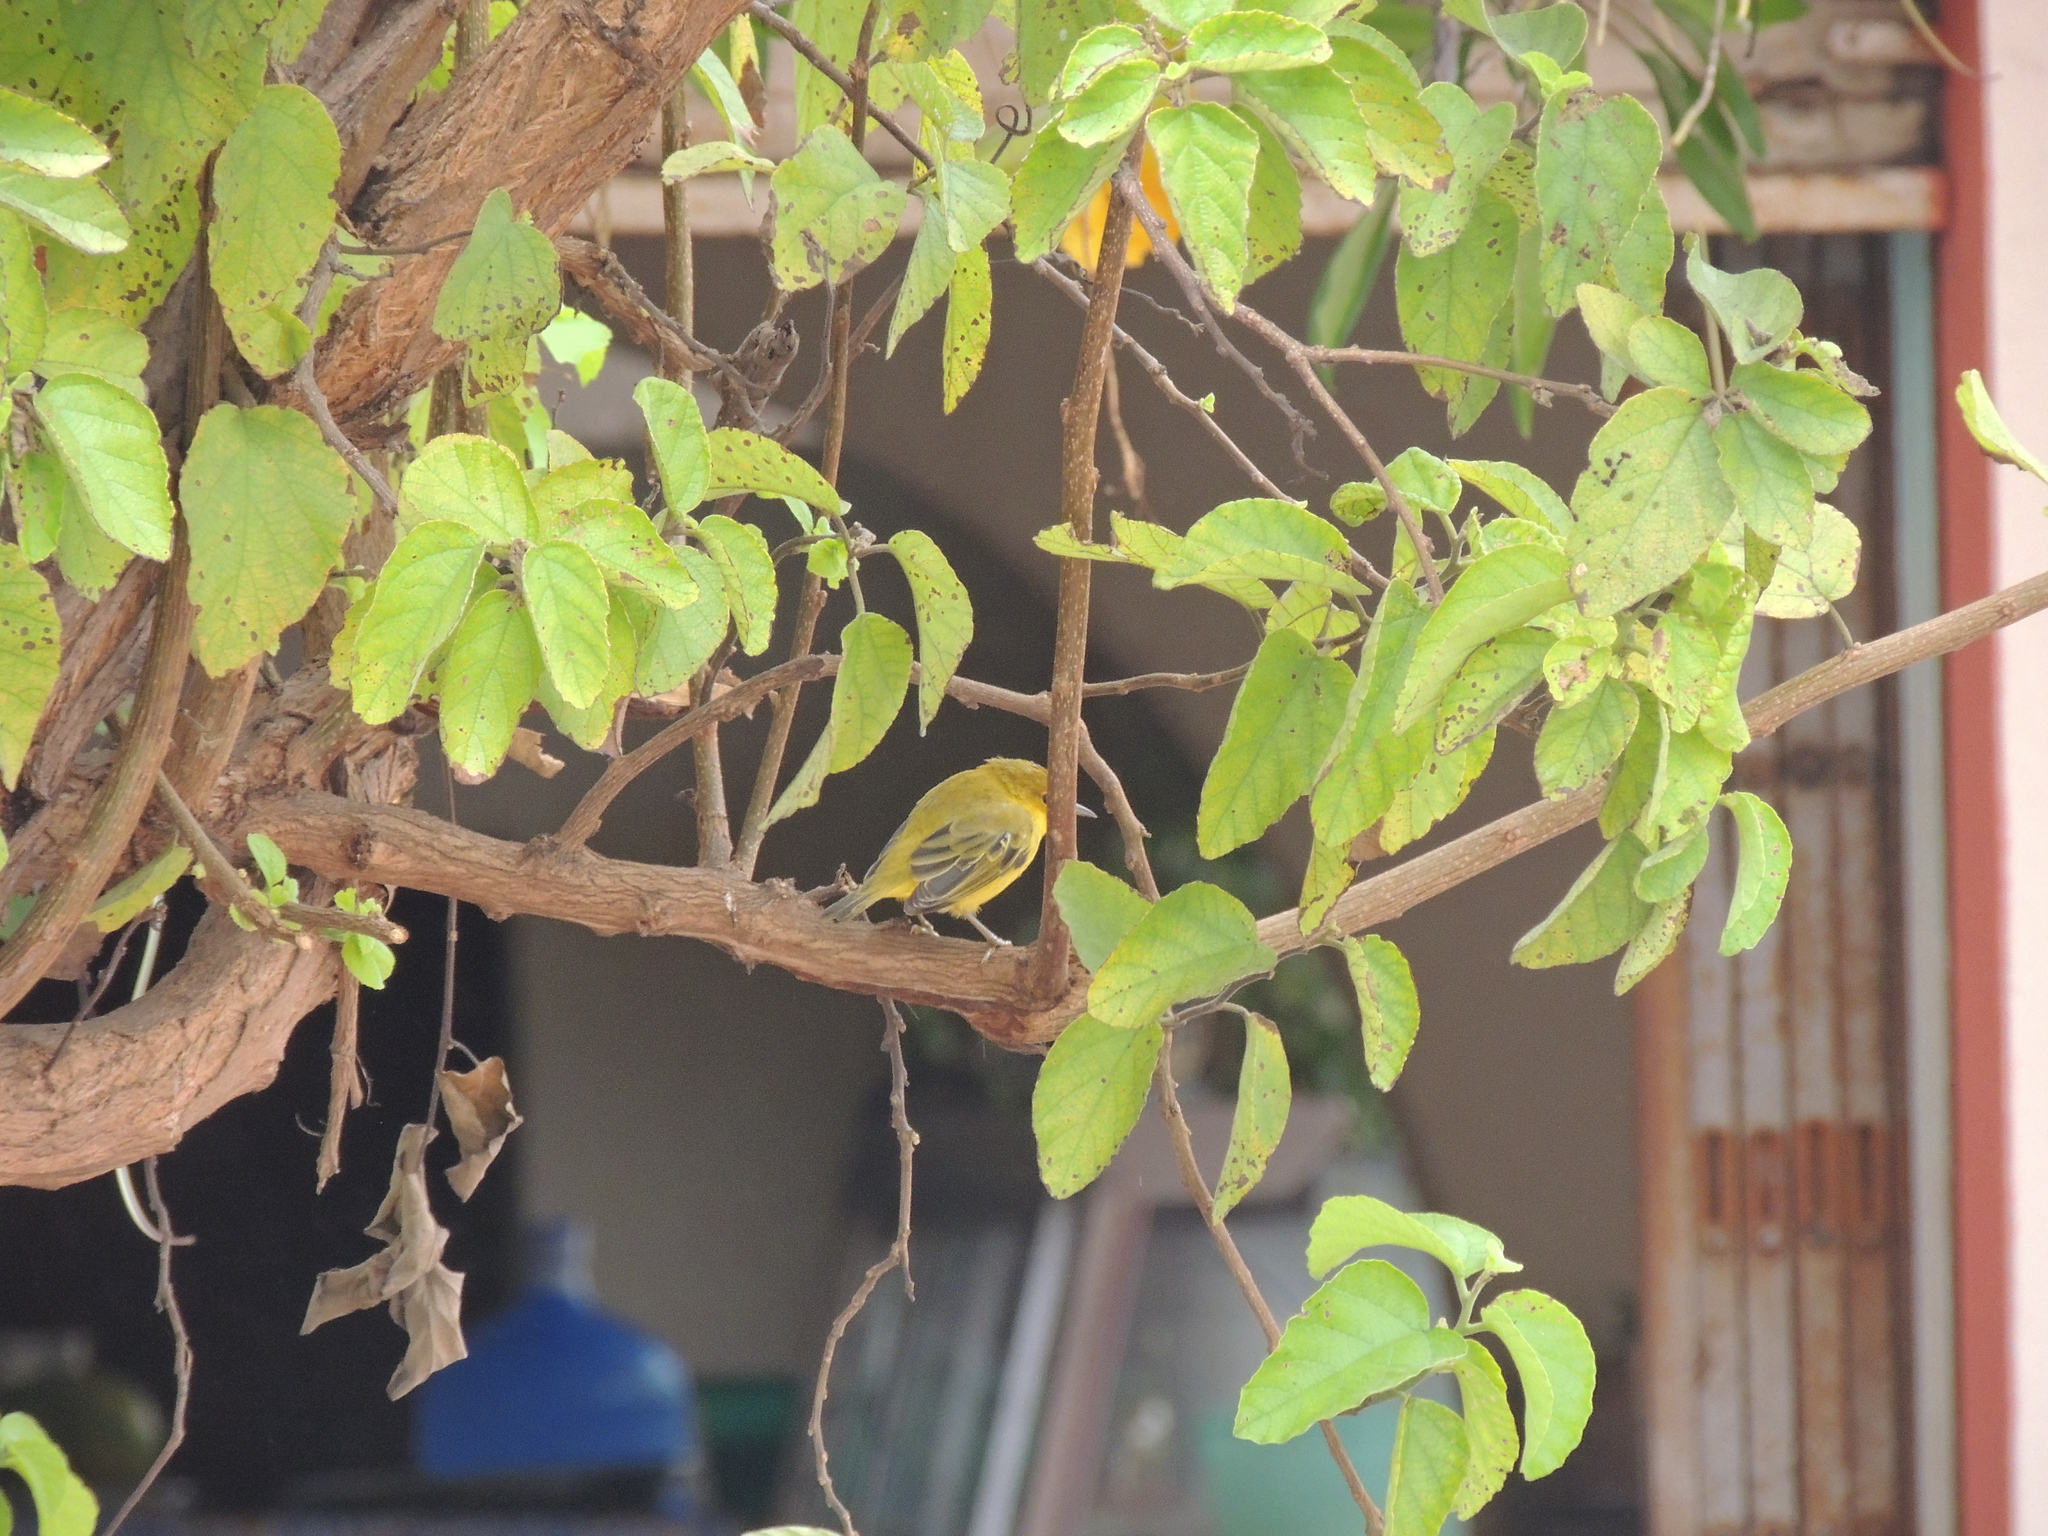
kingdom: Animalia
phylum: Chordata
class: Aves
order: Passeriformes
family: Parulidae
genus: Setophaga
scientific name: Setophaga petechia
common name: Yellow warbler
